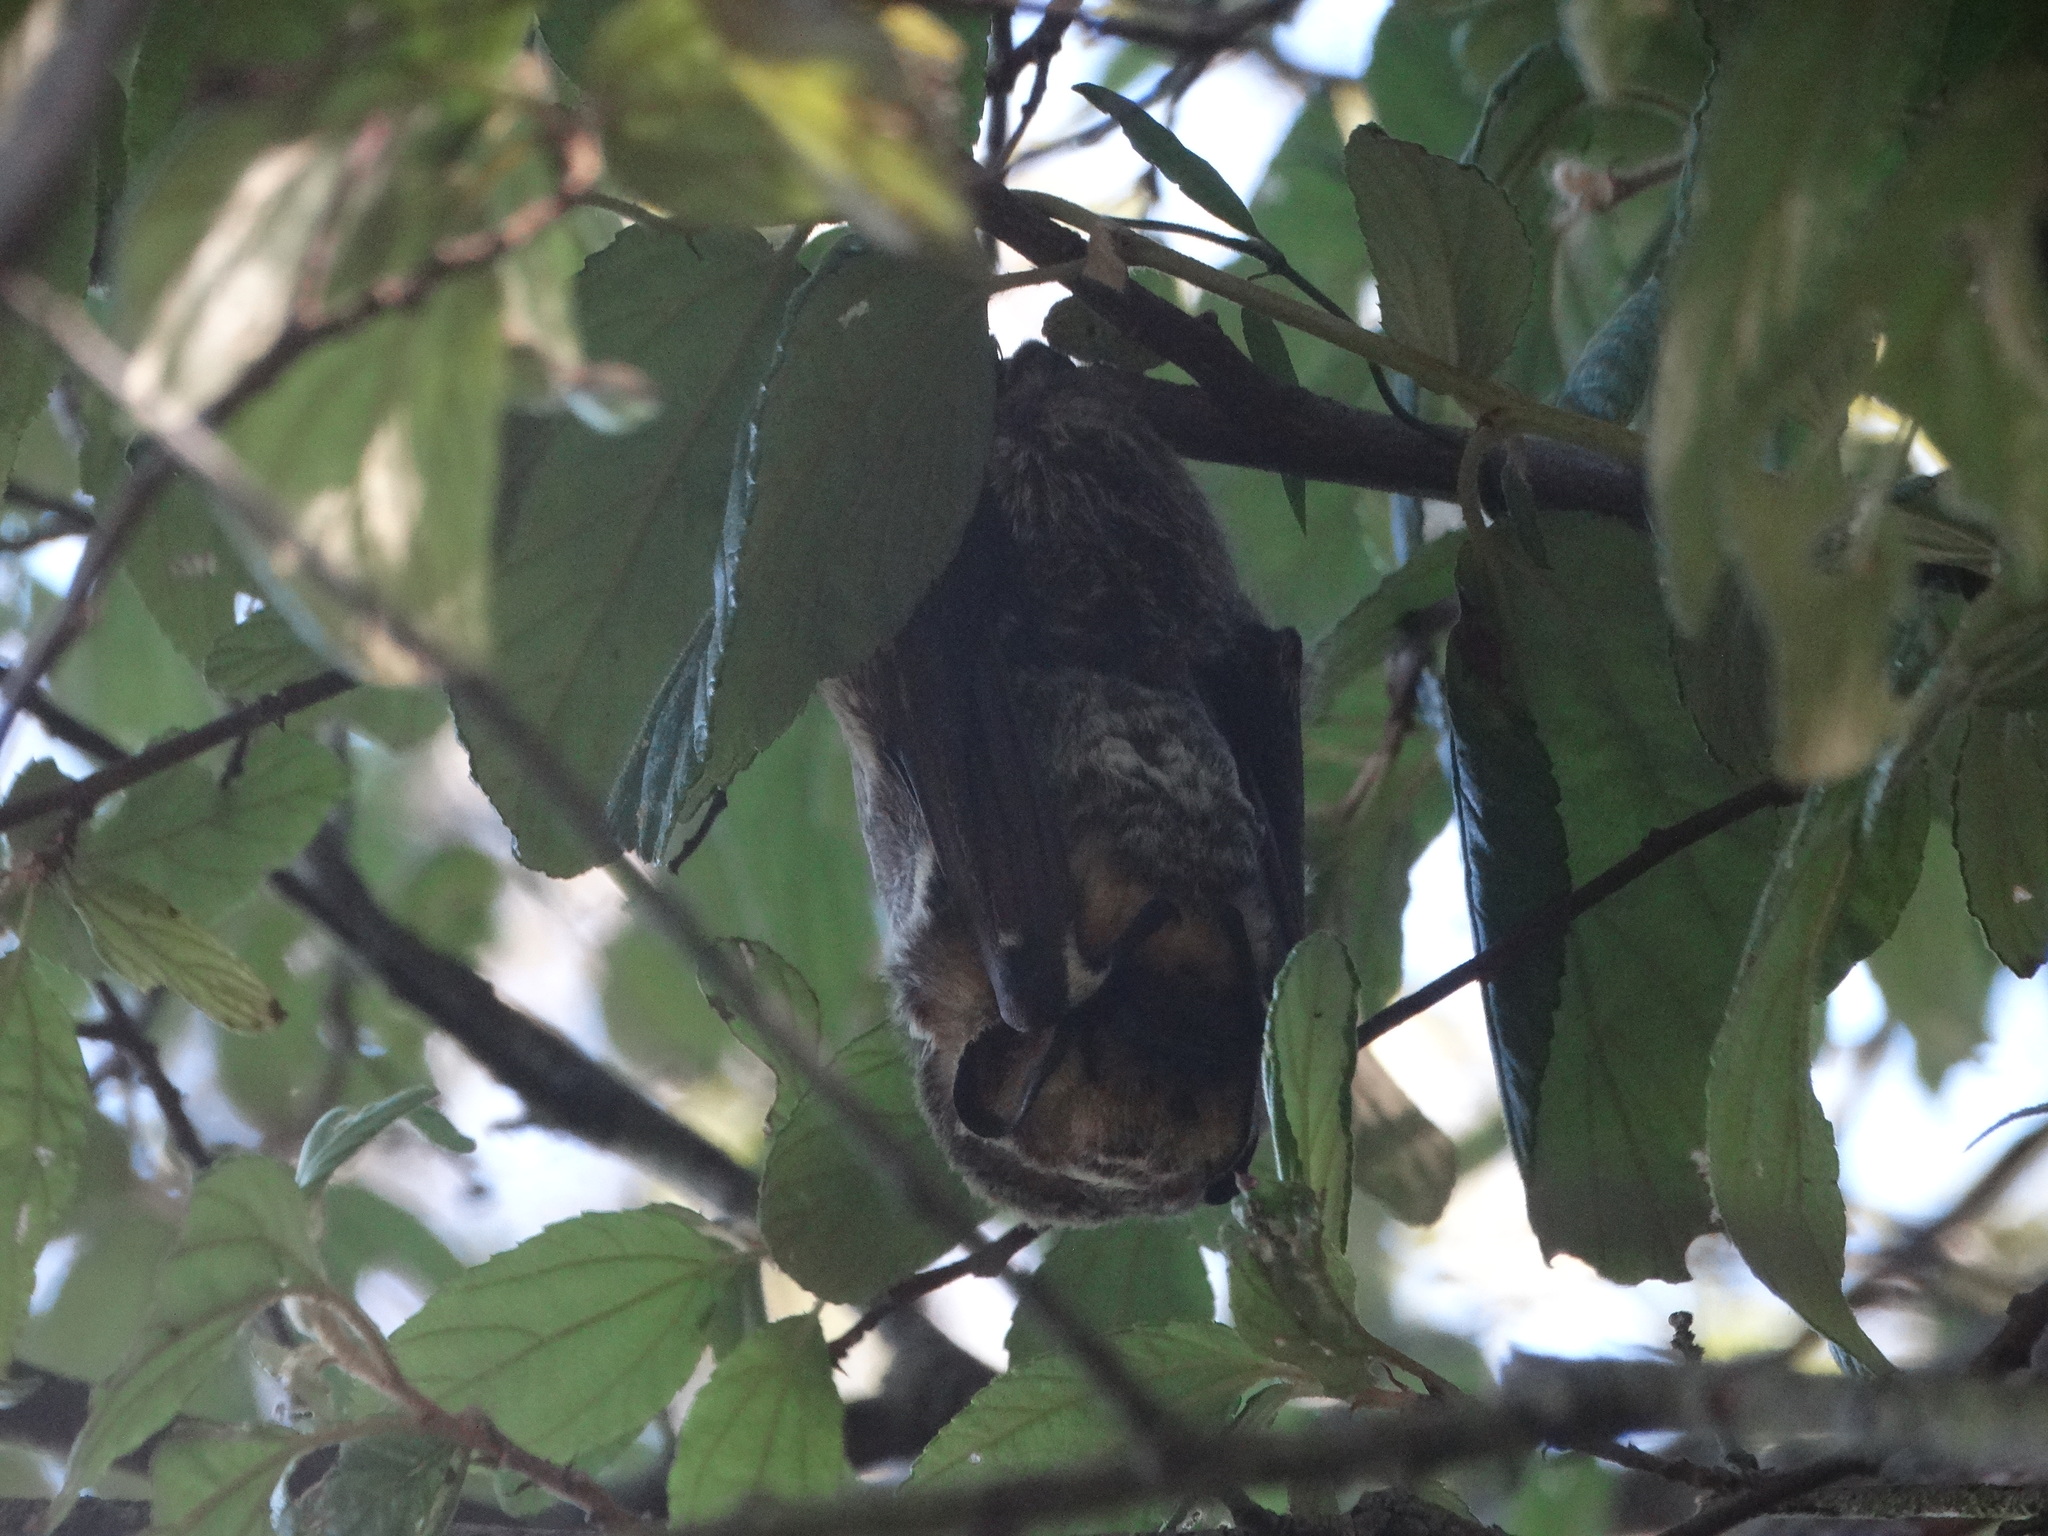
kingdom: Animalia
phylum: Chordata
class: Mammalia
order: Chiroptera
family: Vespertilionidae
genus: Aeorestes
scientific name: Aeorestes cinereus
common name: North american hoary bat
